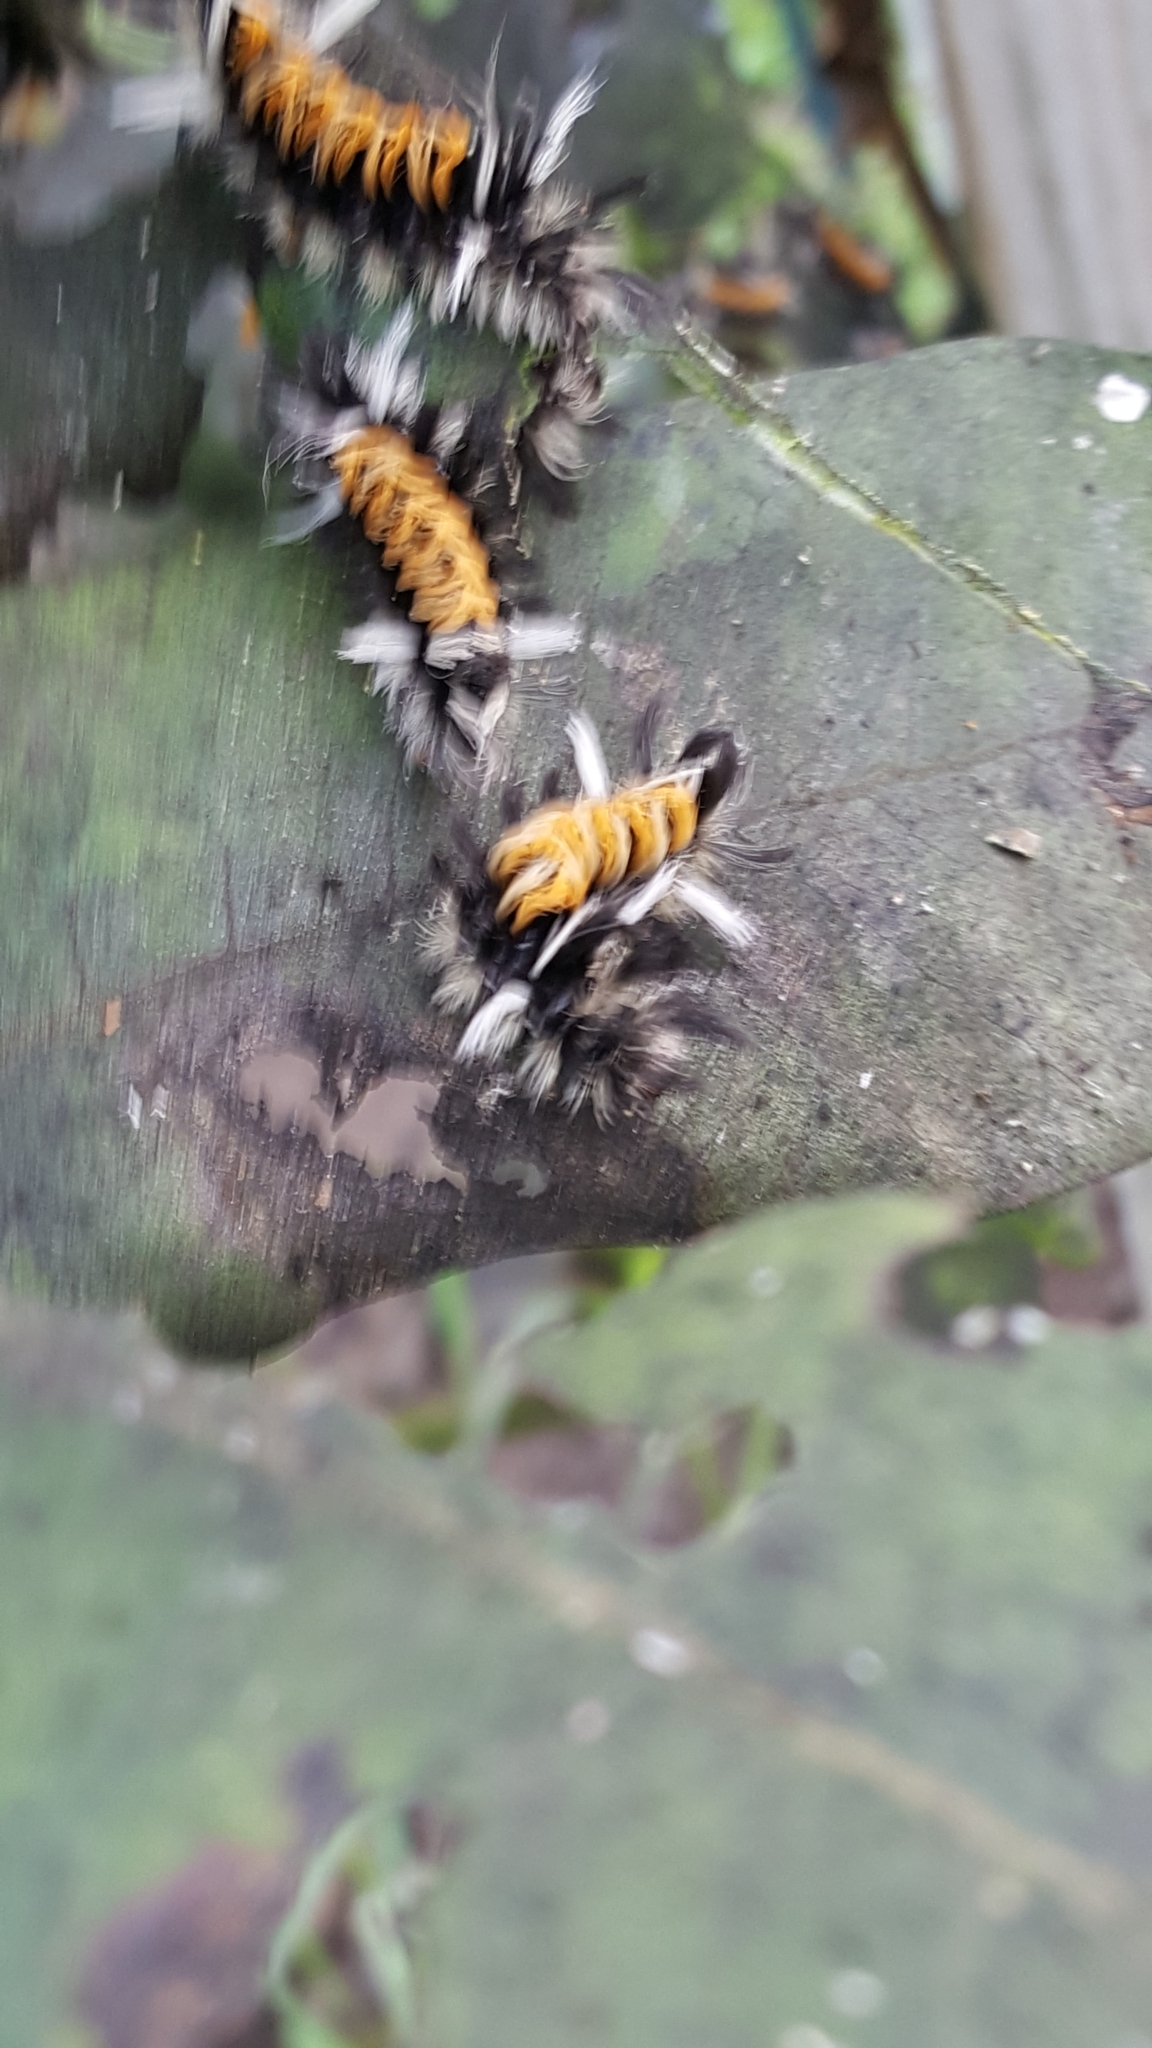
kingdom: Animalia
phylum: Arthropoda
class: Insecta
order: Lepidoptera
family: Erebidae
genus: Euchaetes
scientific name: Euchaetes egle
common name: Milkweed tussock moth
